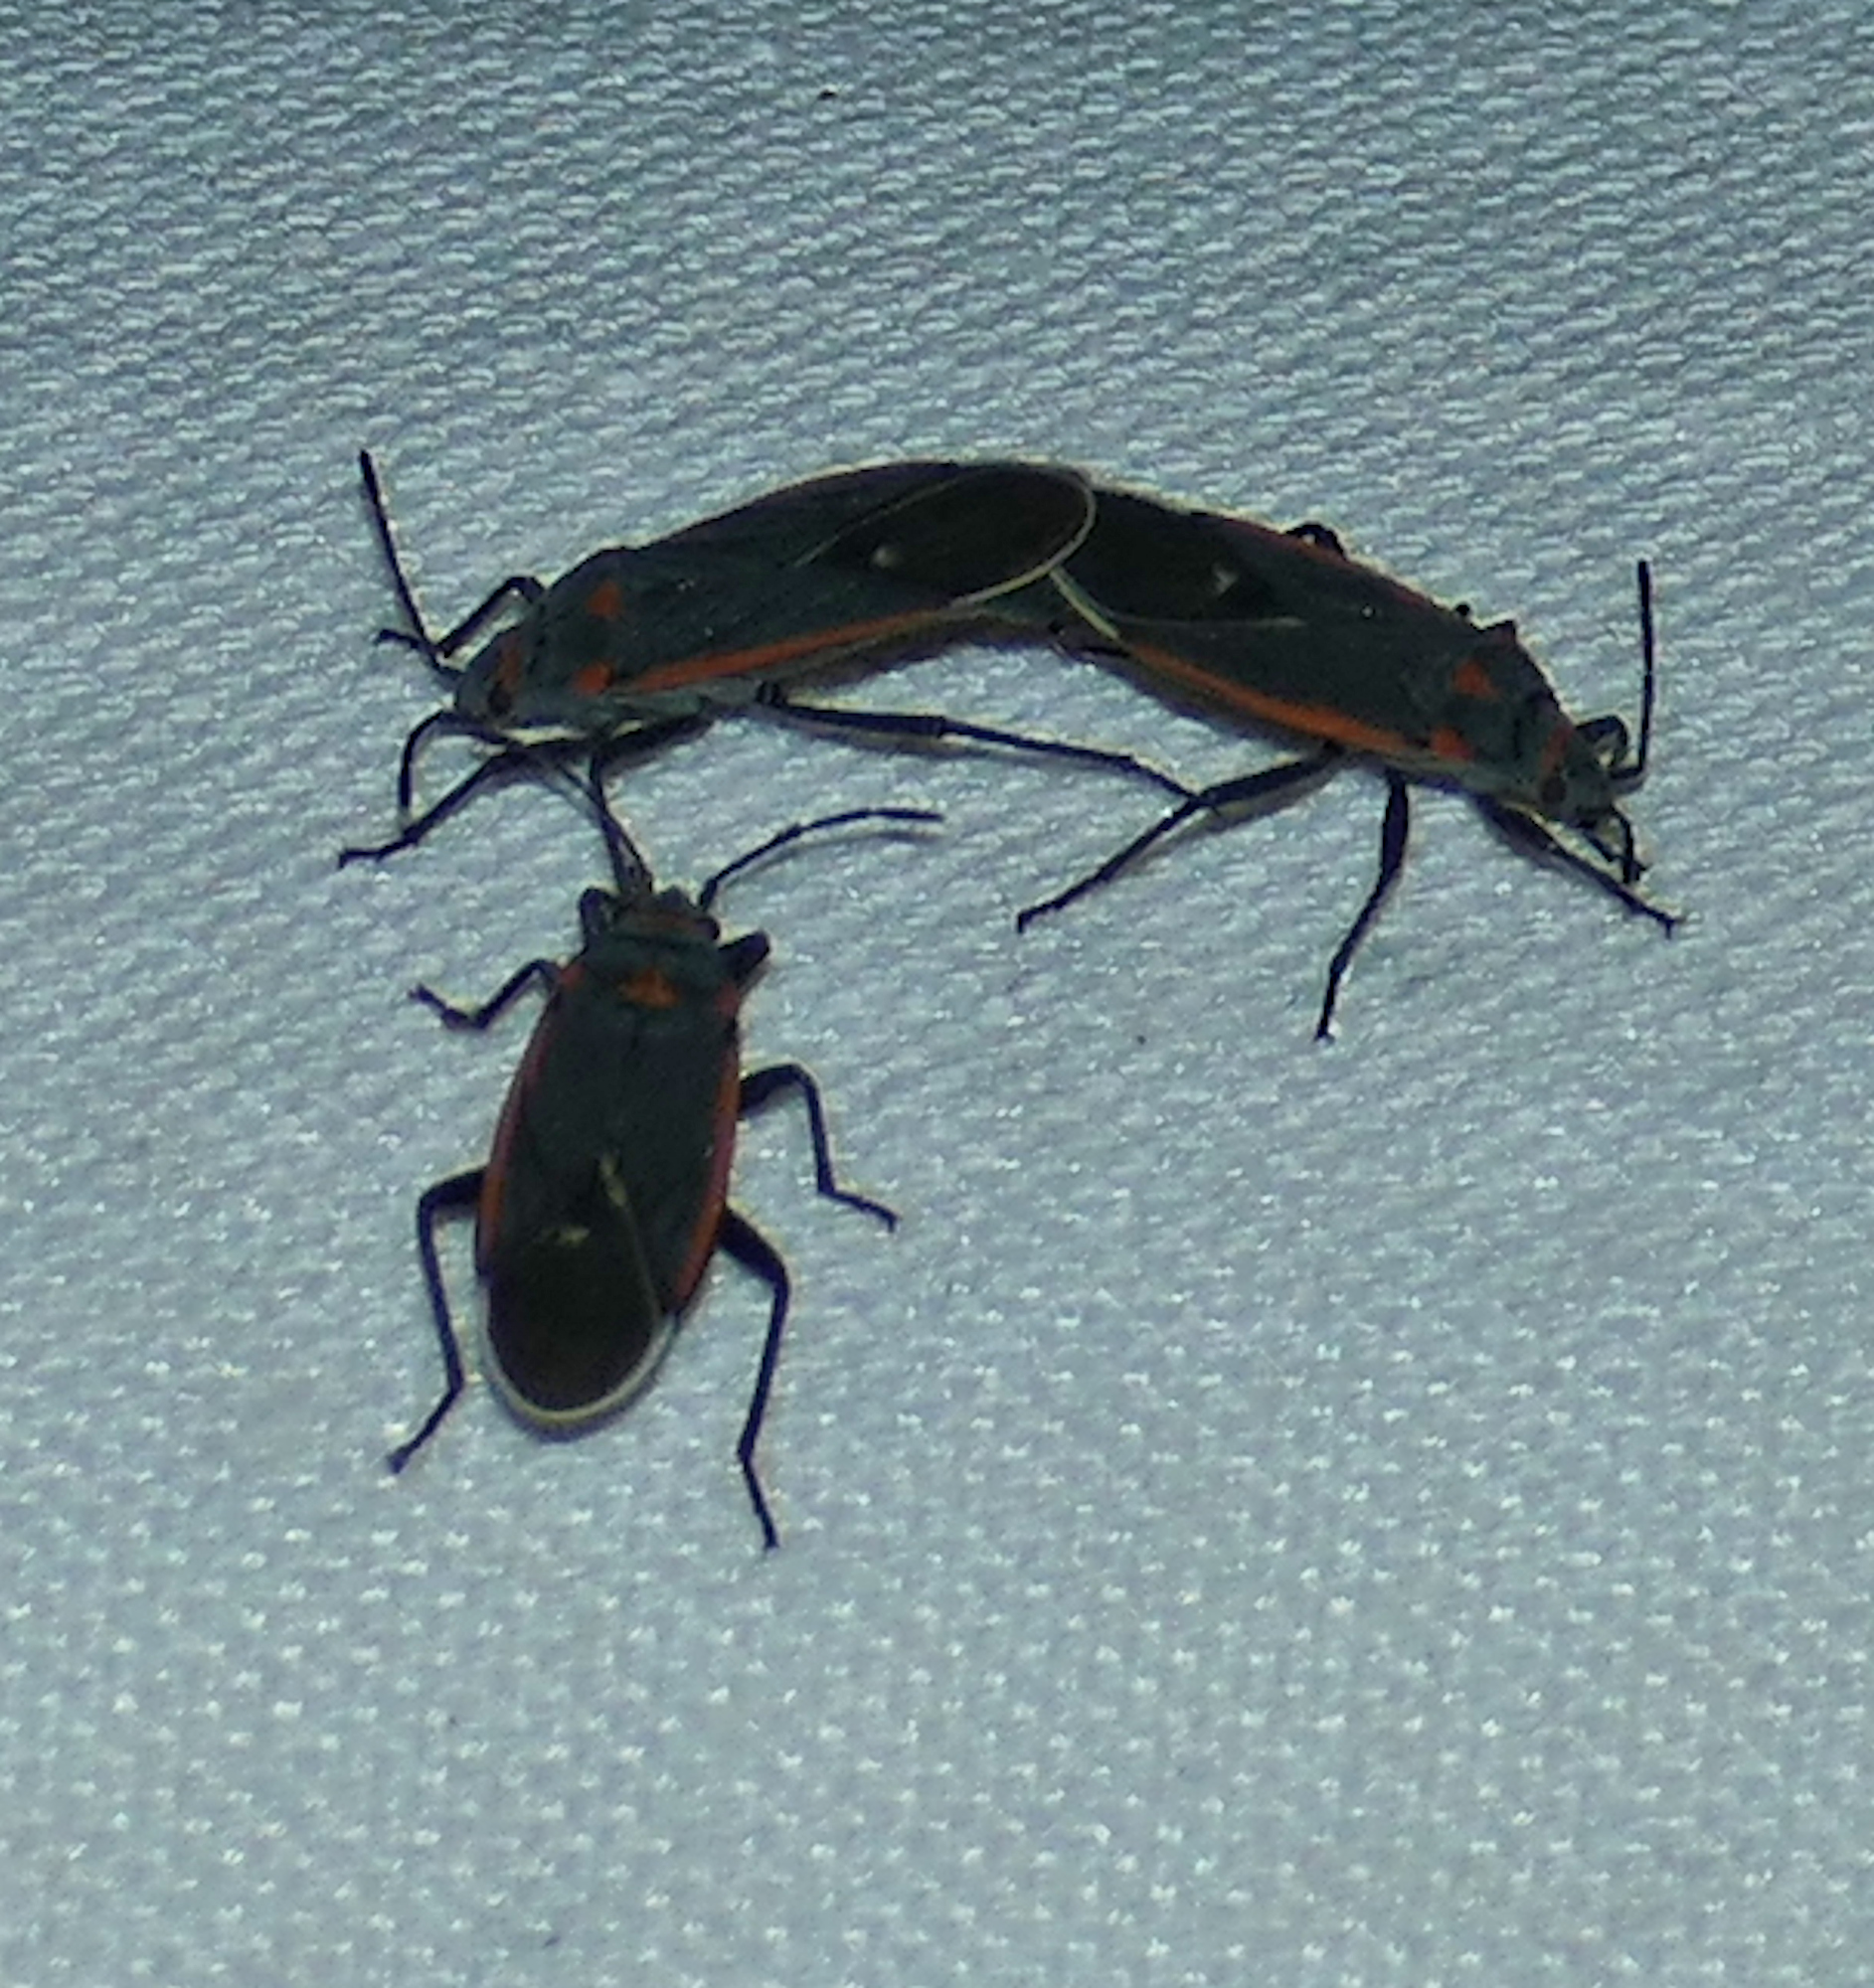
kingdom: Animalia
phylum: Arthropoda
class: Insecta
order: Hemiptera
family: Lygaeidae
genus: Melacoryphus
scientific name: Melacoryphus lateralis
